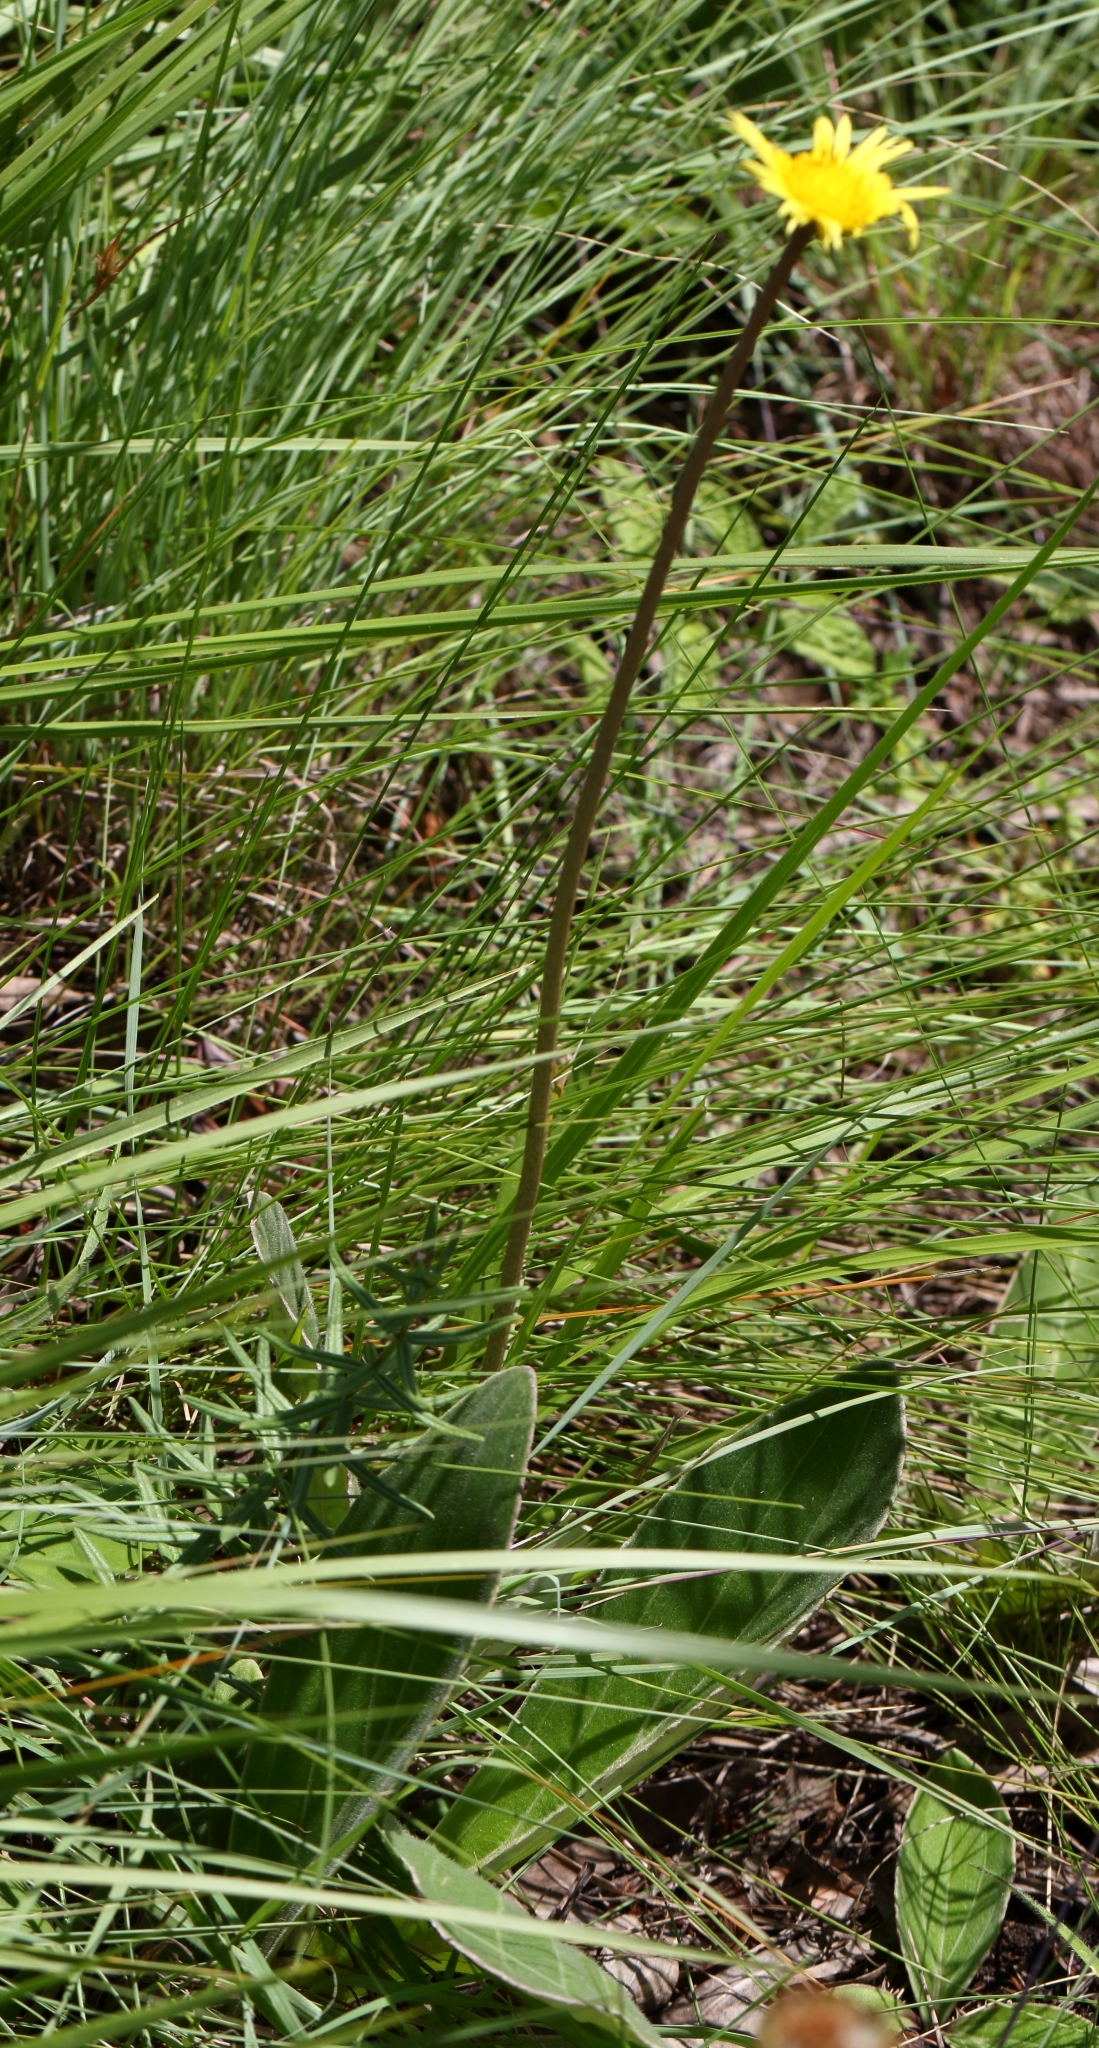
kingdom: Plantae
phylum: Tracheophyta
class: Magnoliopsida
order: Asterales
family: Asteraceae
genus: Haplocarpha
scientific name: Haplocarpha scaposa
